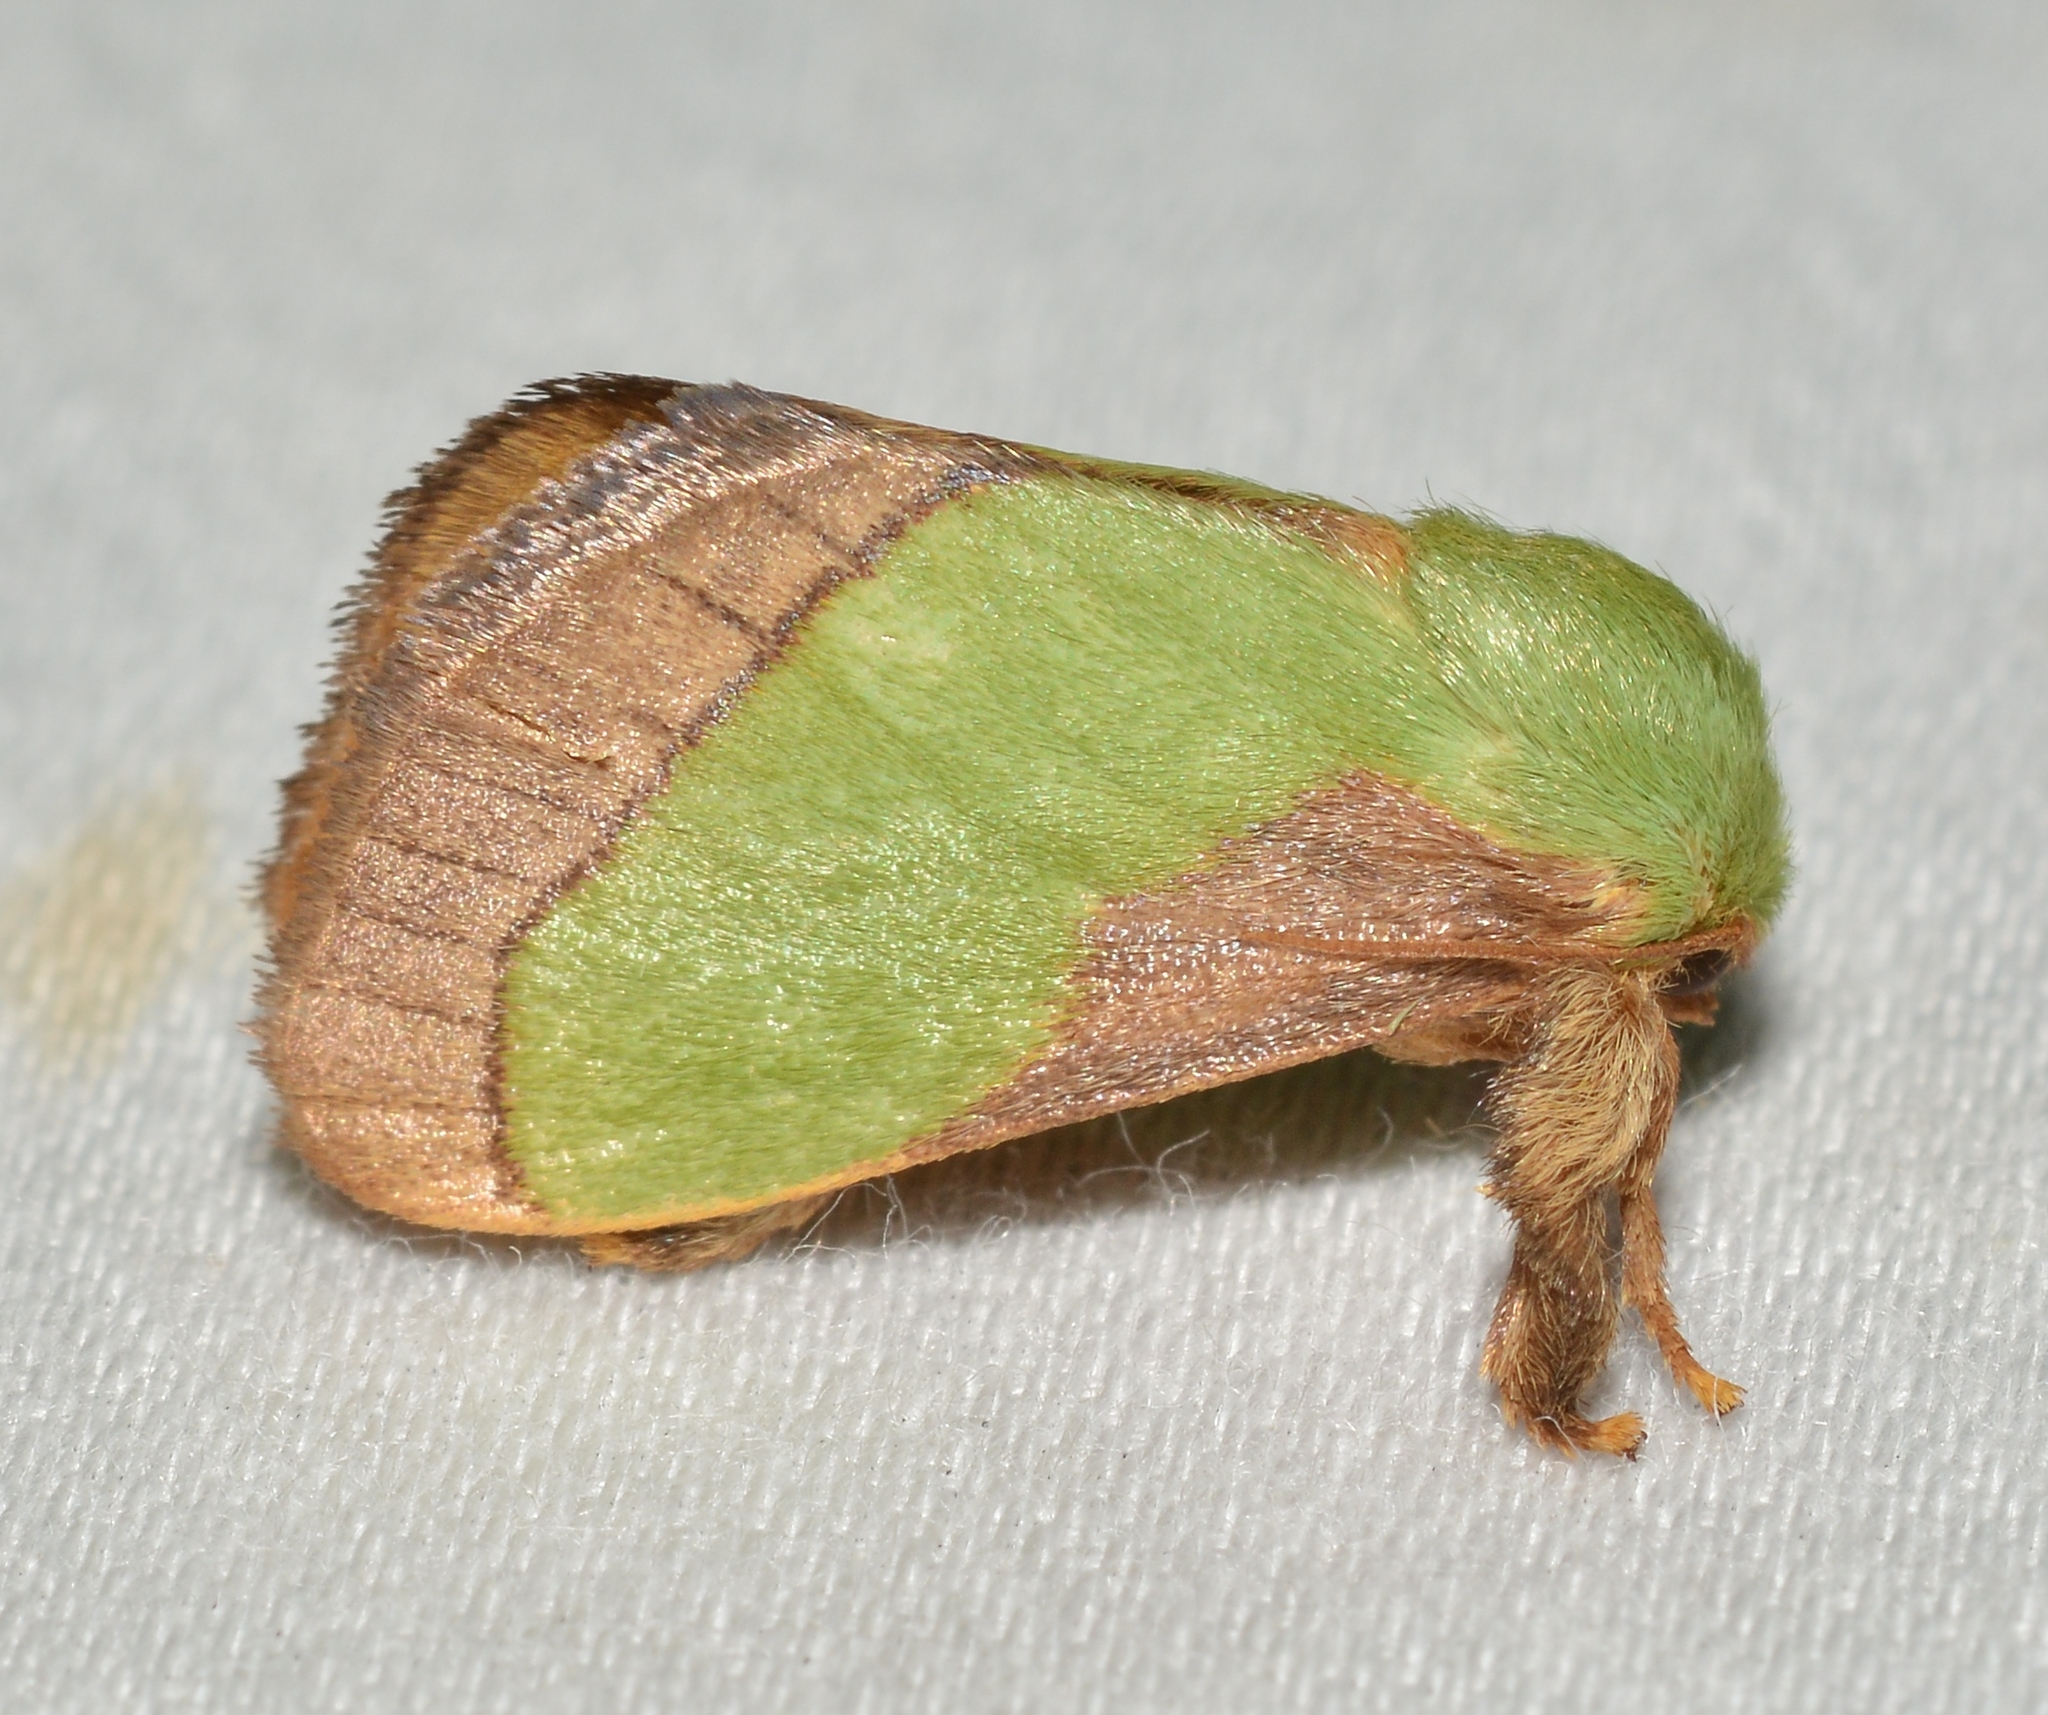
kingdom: Animalia
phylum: Arthropoda
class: Insecta
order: Lepidoptera
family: Limacodidae
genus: Parasa
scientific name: Parasa chloris
